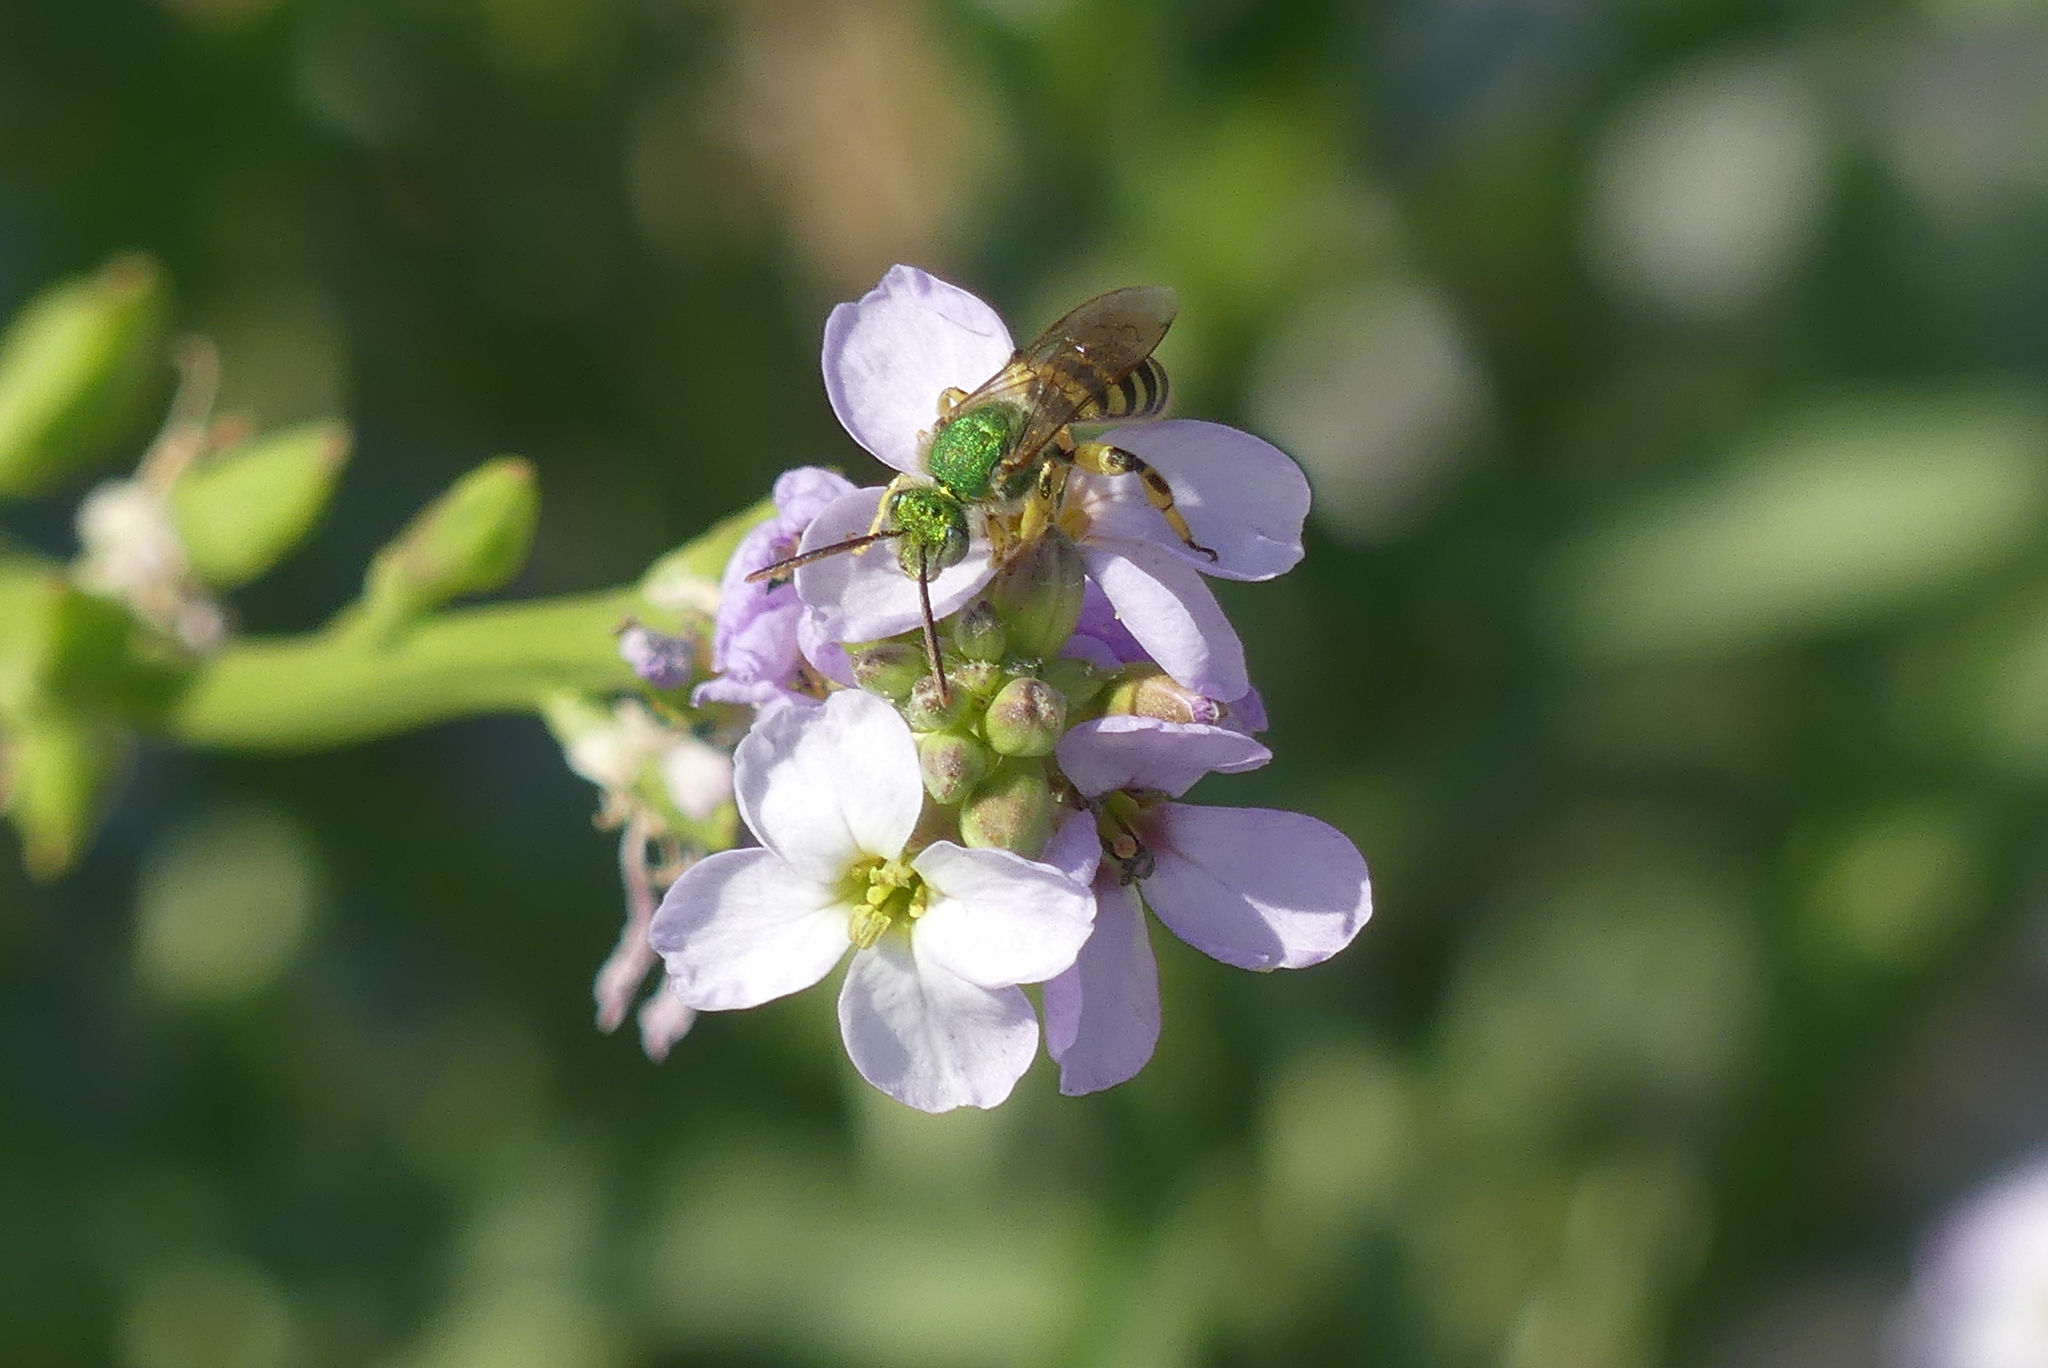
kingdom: Animalia
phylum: Arthropoda
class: Insecta
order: Hymenoptera
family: Halictidae
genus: Agapostemon
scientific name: Agapostemon texanus
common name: Texas striped sweat bee
